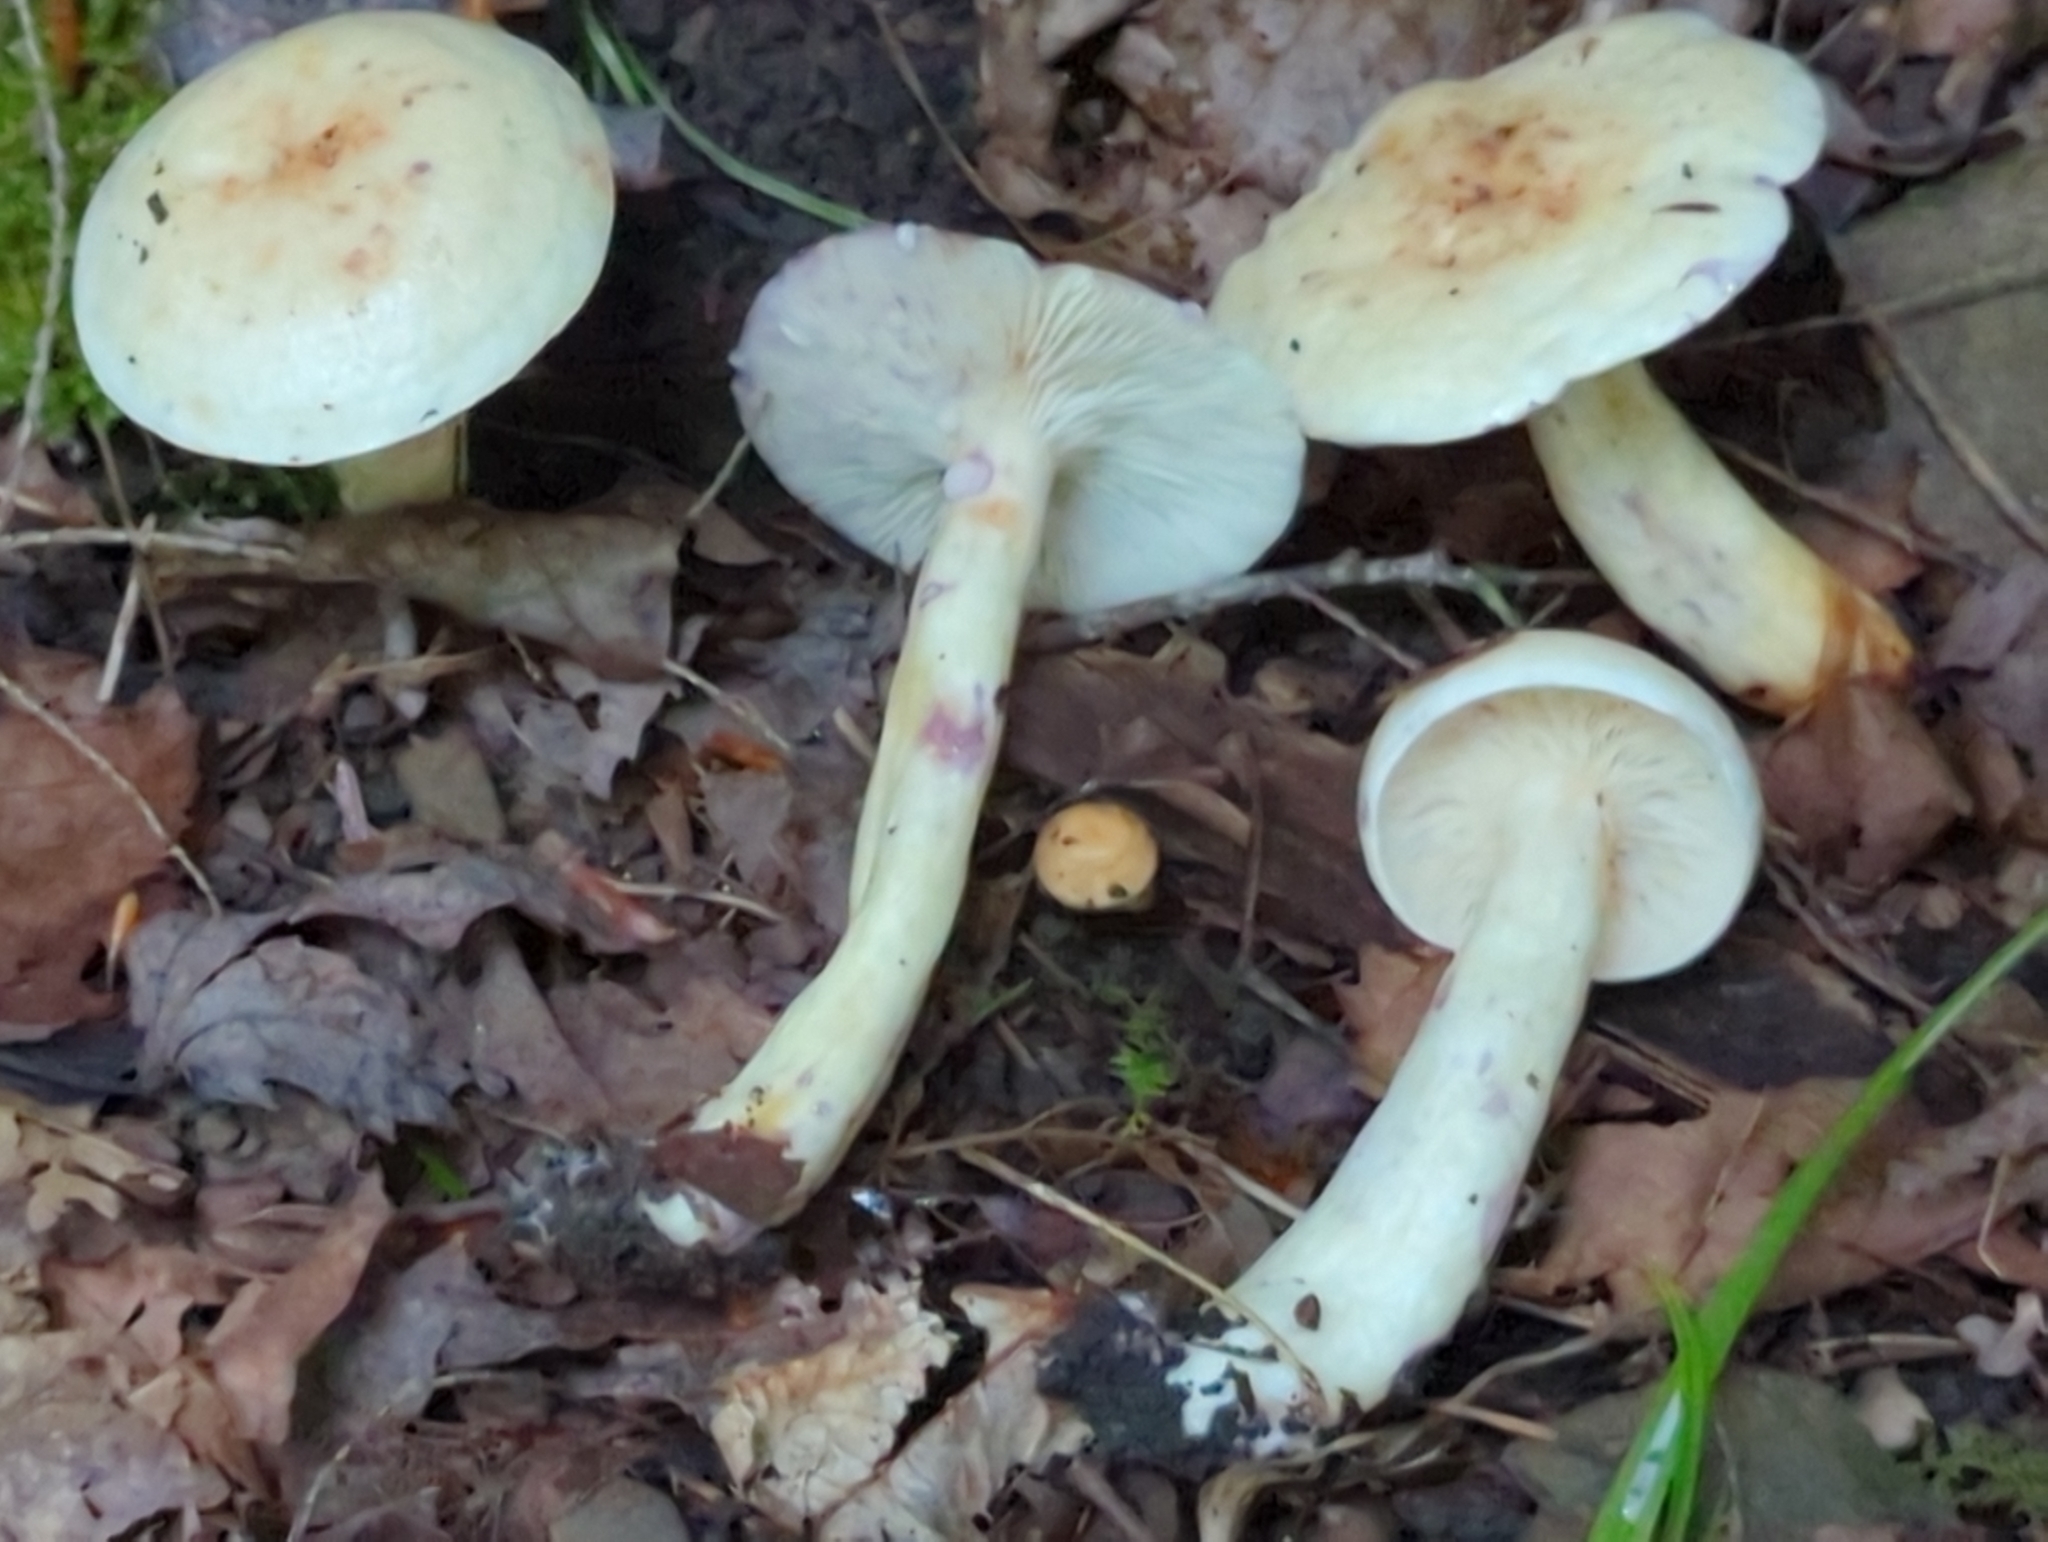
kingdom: Fungi
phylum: Basidiomycota
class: Agaricomycetes
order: Russulales
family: Russulaceae
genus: Lactarius
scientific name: Lactarius uvidus
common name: Shiner milkcap
